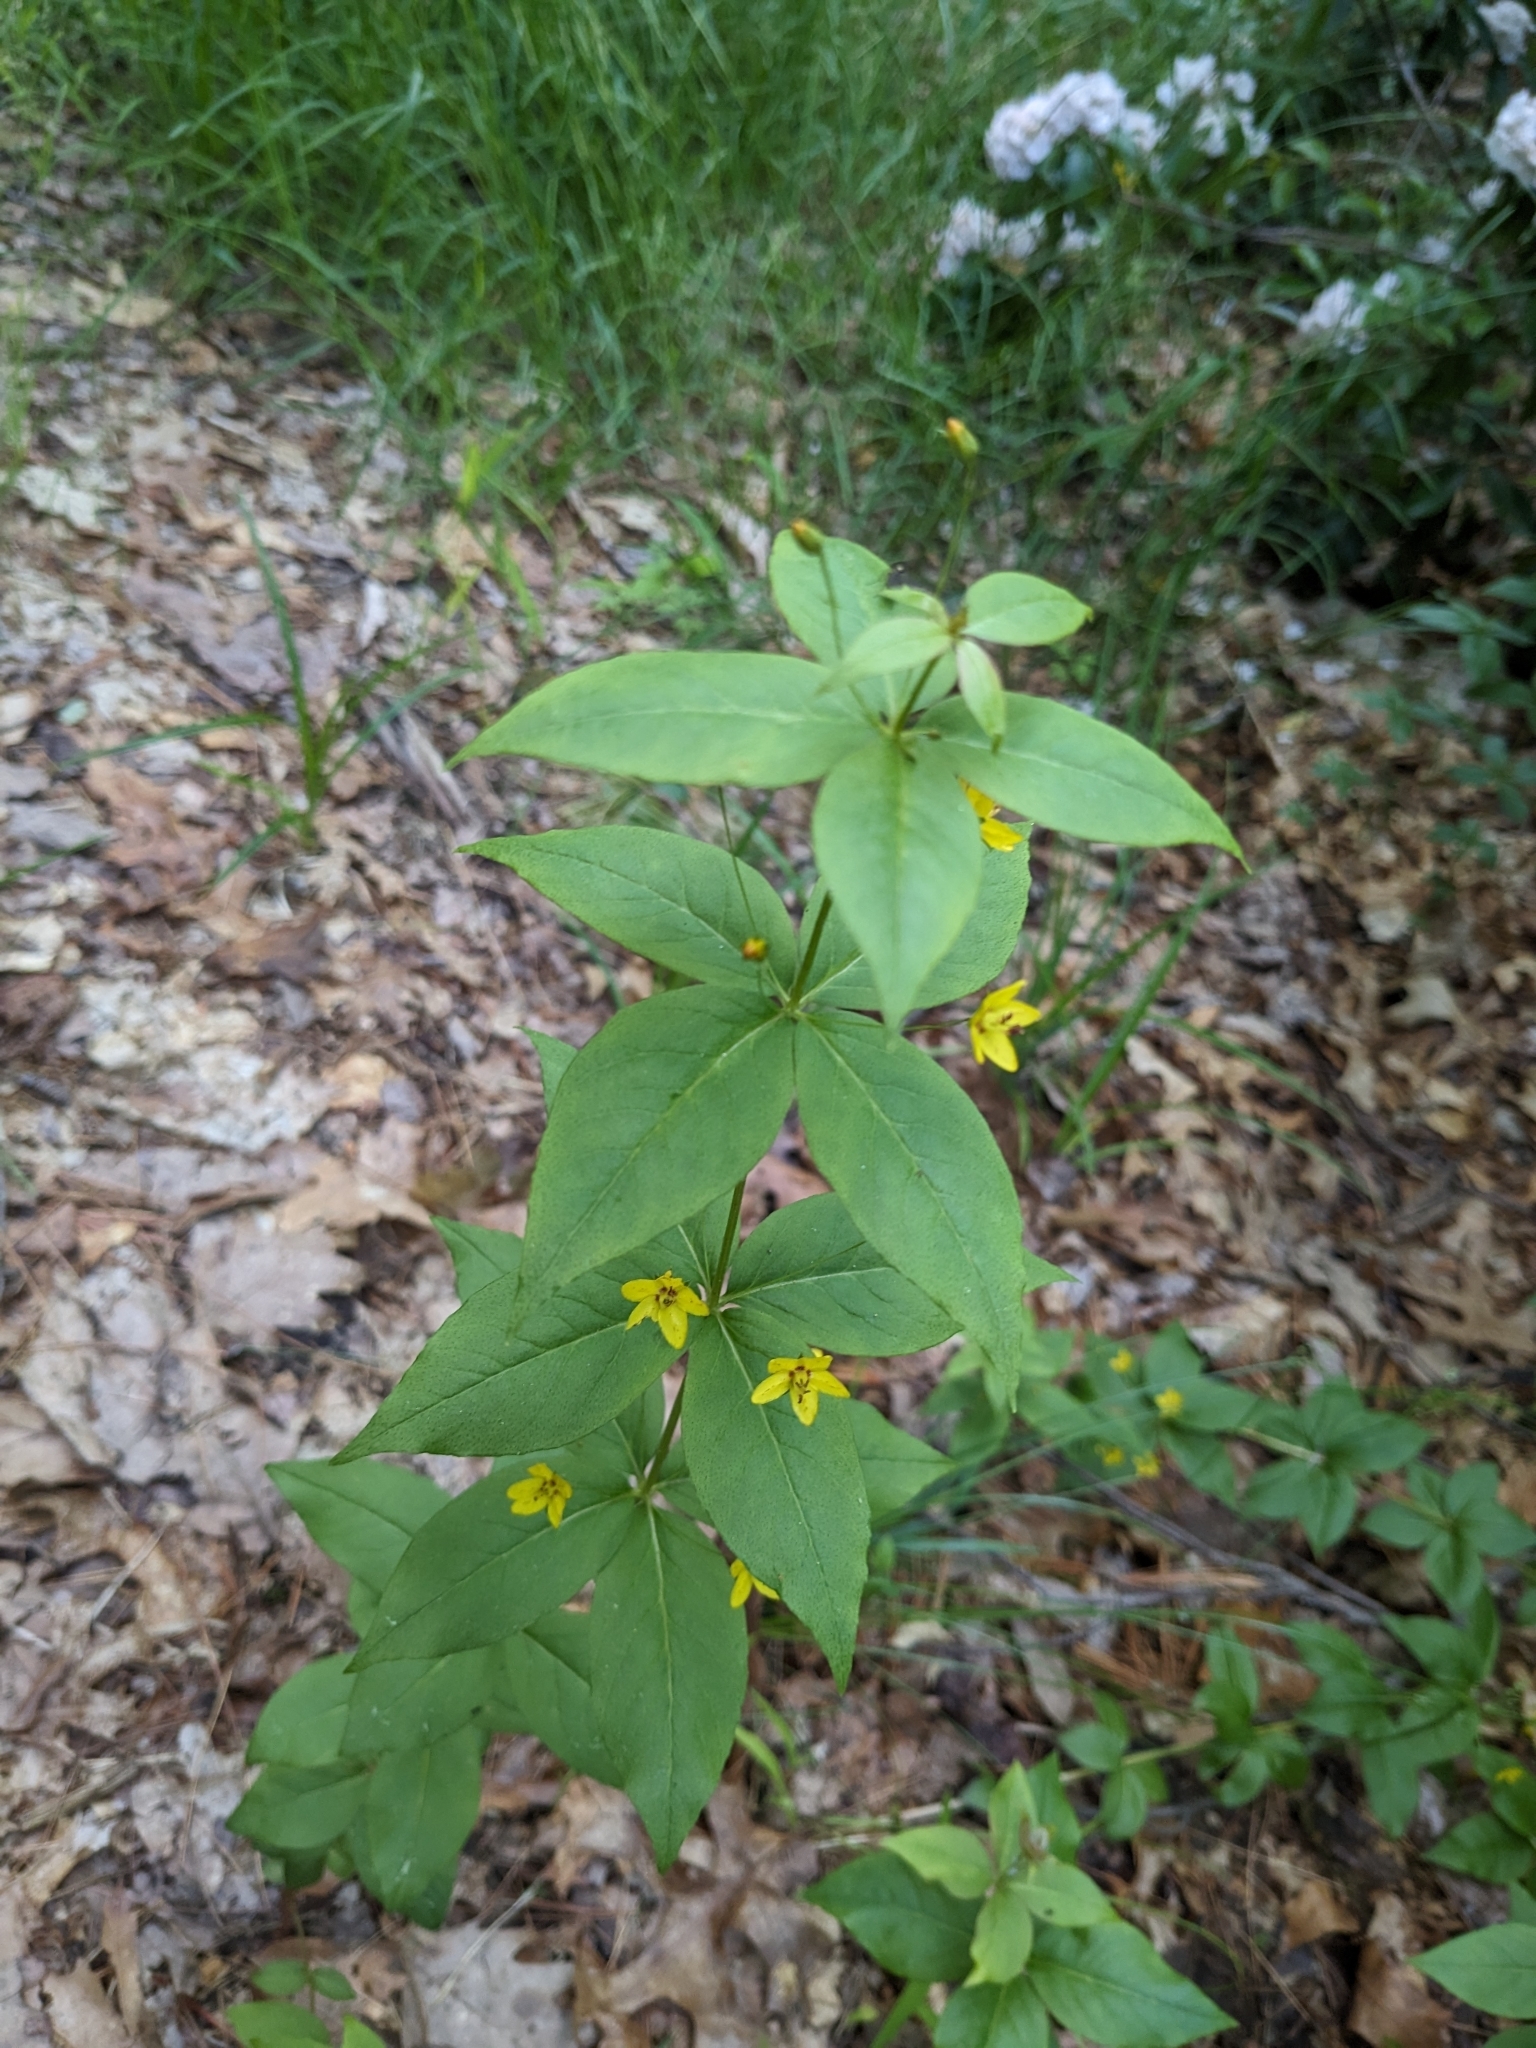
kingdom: Plantae
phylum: Tracheophyta
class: Magnoliopsida
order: Ericales
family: Primulaceae
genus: Lysimachia
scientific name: Lysimachia quadrifolia
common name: Whorled loosestrife
